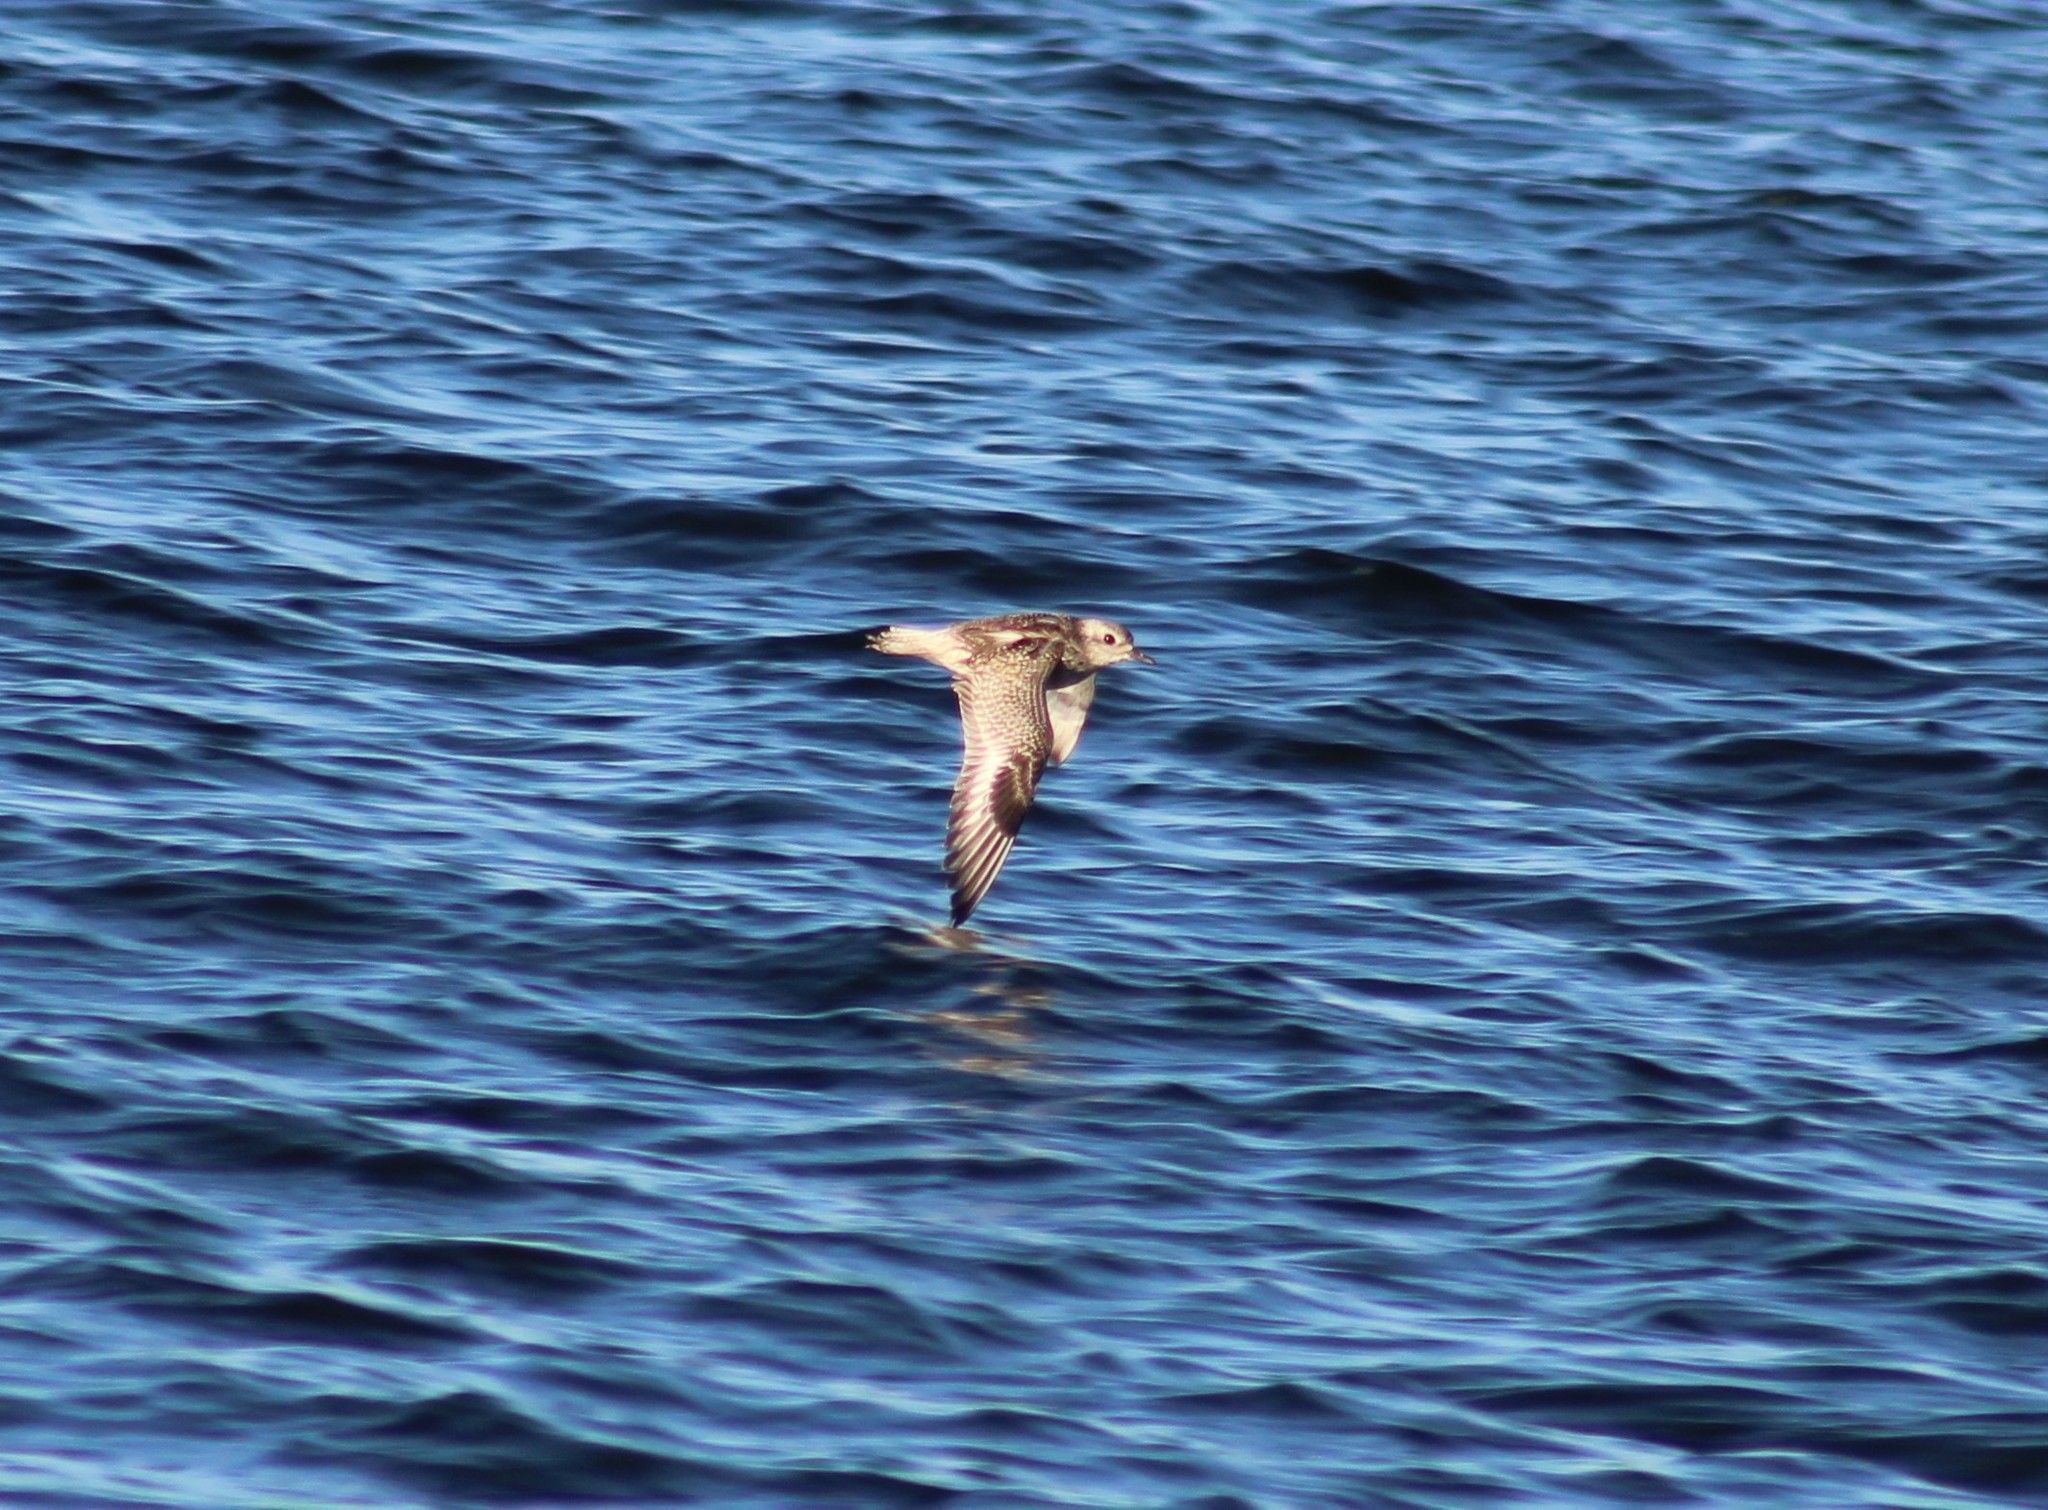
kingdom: Animalia
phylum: Chordata
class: Aves
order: Charadriiformes
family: Charadriidae
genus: Pluvialis
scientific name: Pluvialis squatarola
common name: Grey plover
